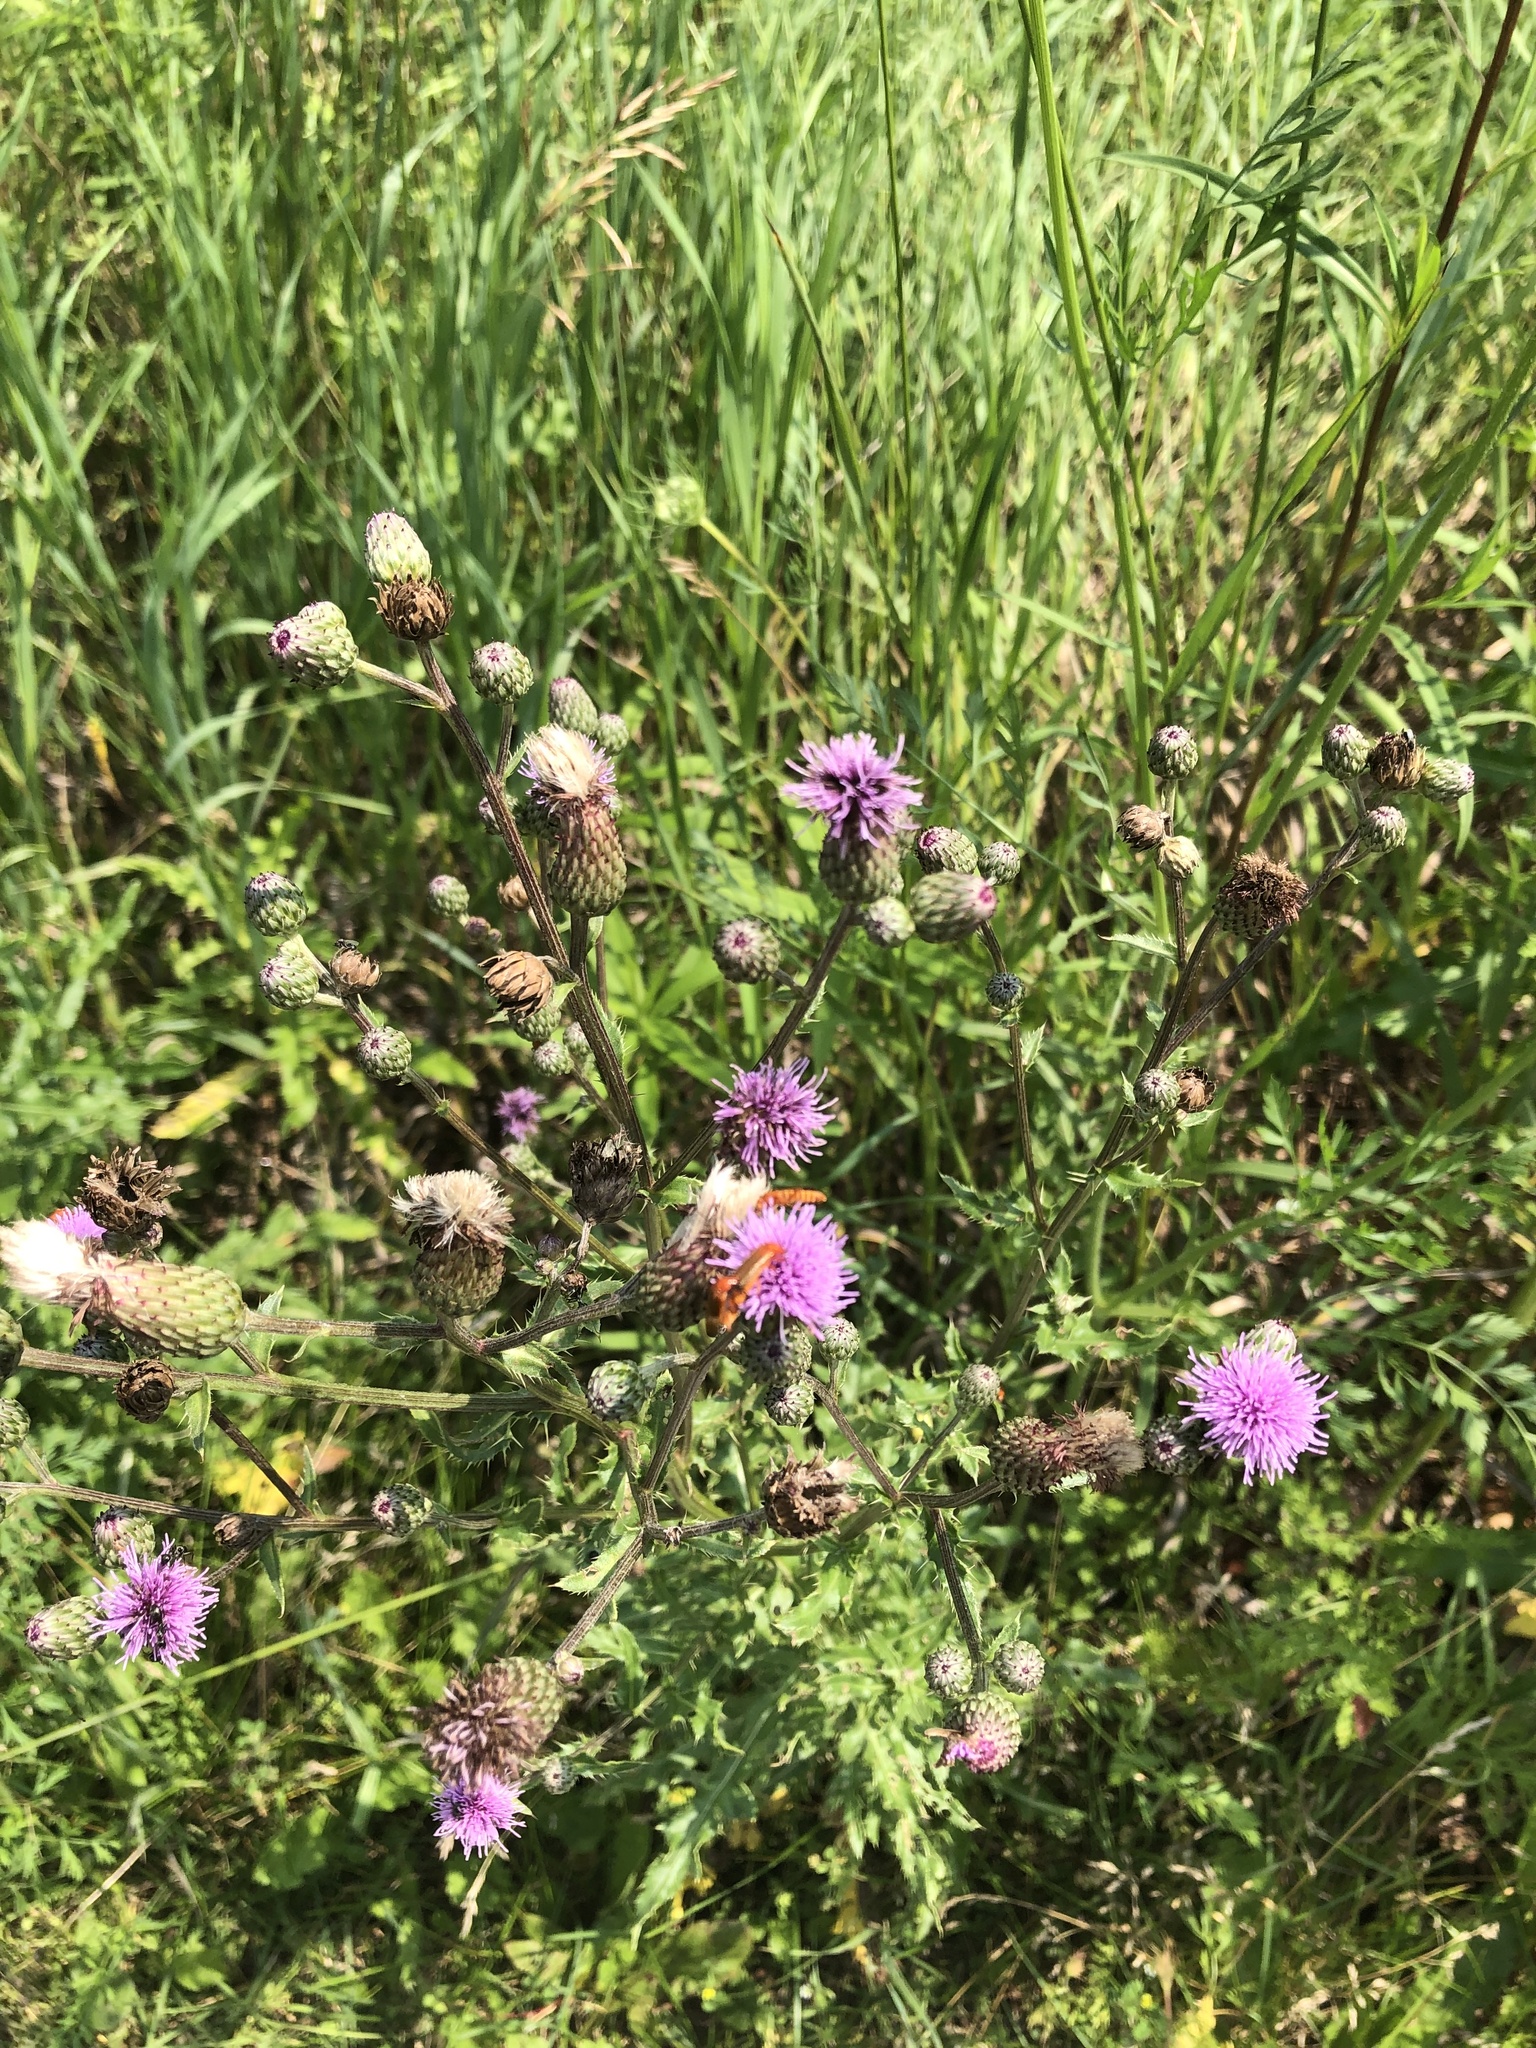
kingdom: Plantae
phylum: Tracheophyta
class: Magnoliopsida
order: Asterales
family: Asteraceae
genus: Cirsium
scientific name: Cirsium arvense
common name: Creeping thistle
